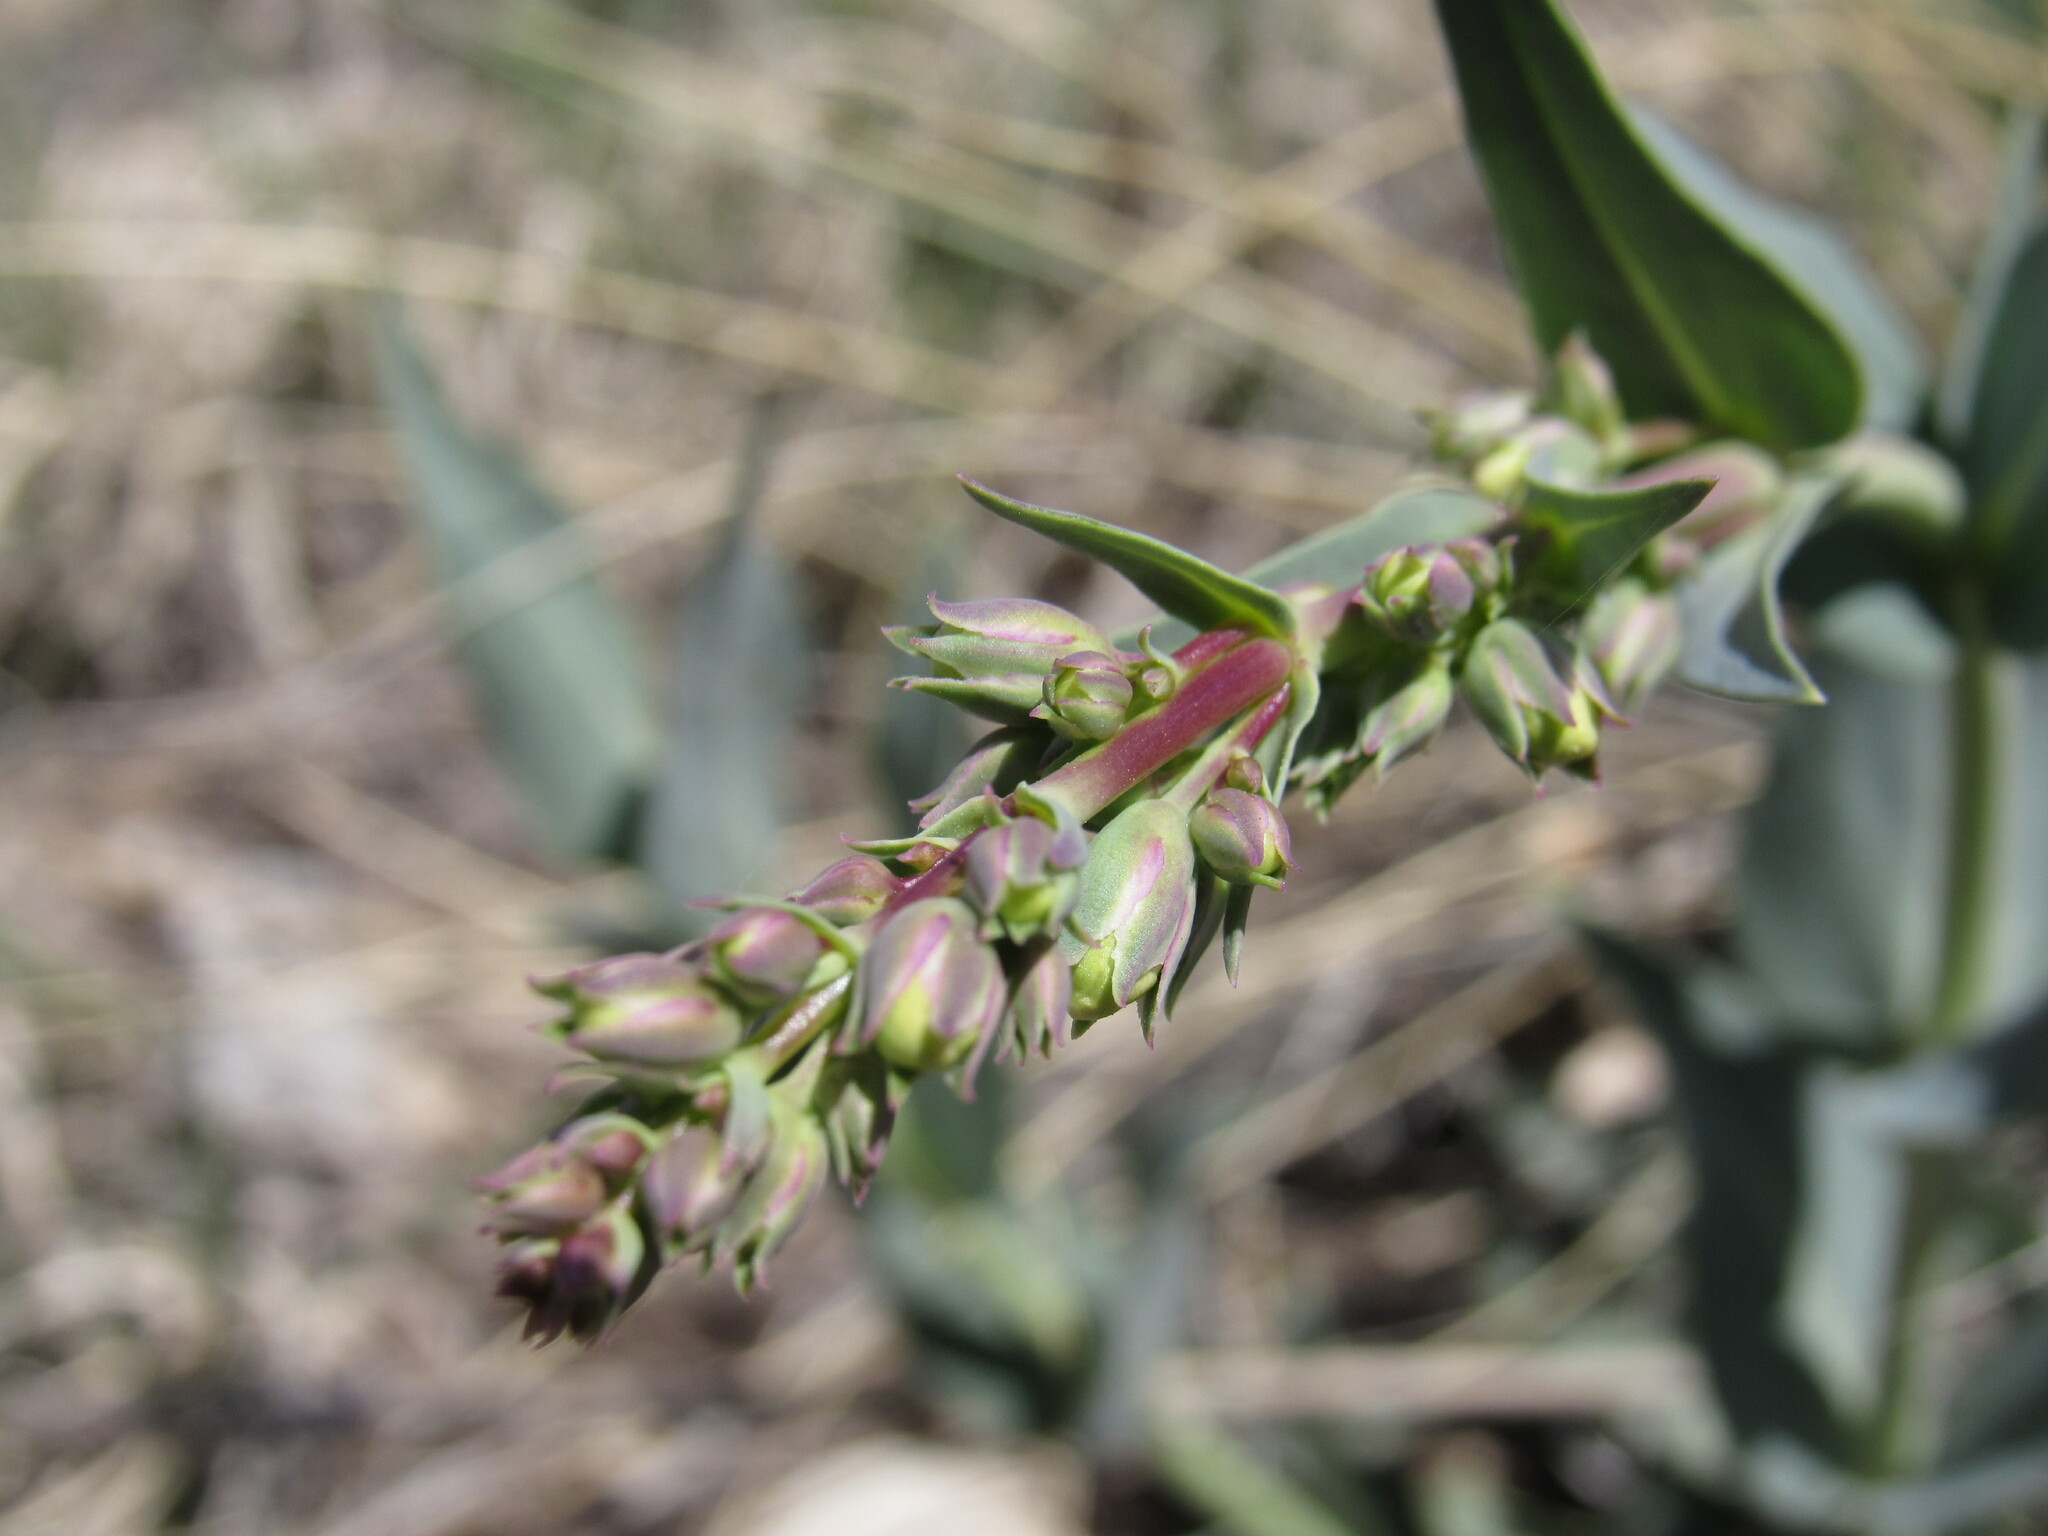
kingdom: Plantae
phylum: Tracheophyta
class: Magnoliopsida
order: Lamiales
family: Plantaginaceae
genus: Penstemon
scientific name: Penstemon secundiflorus
